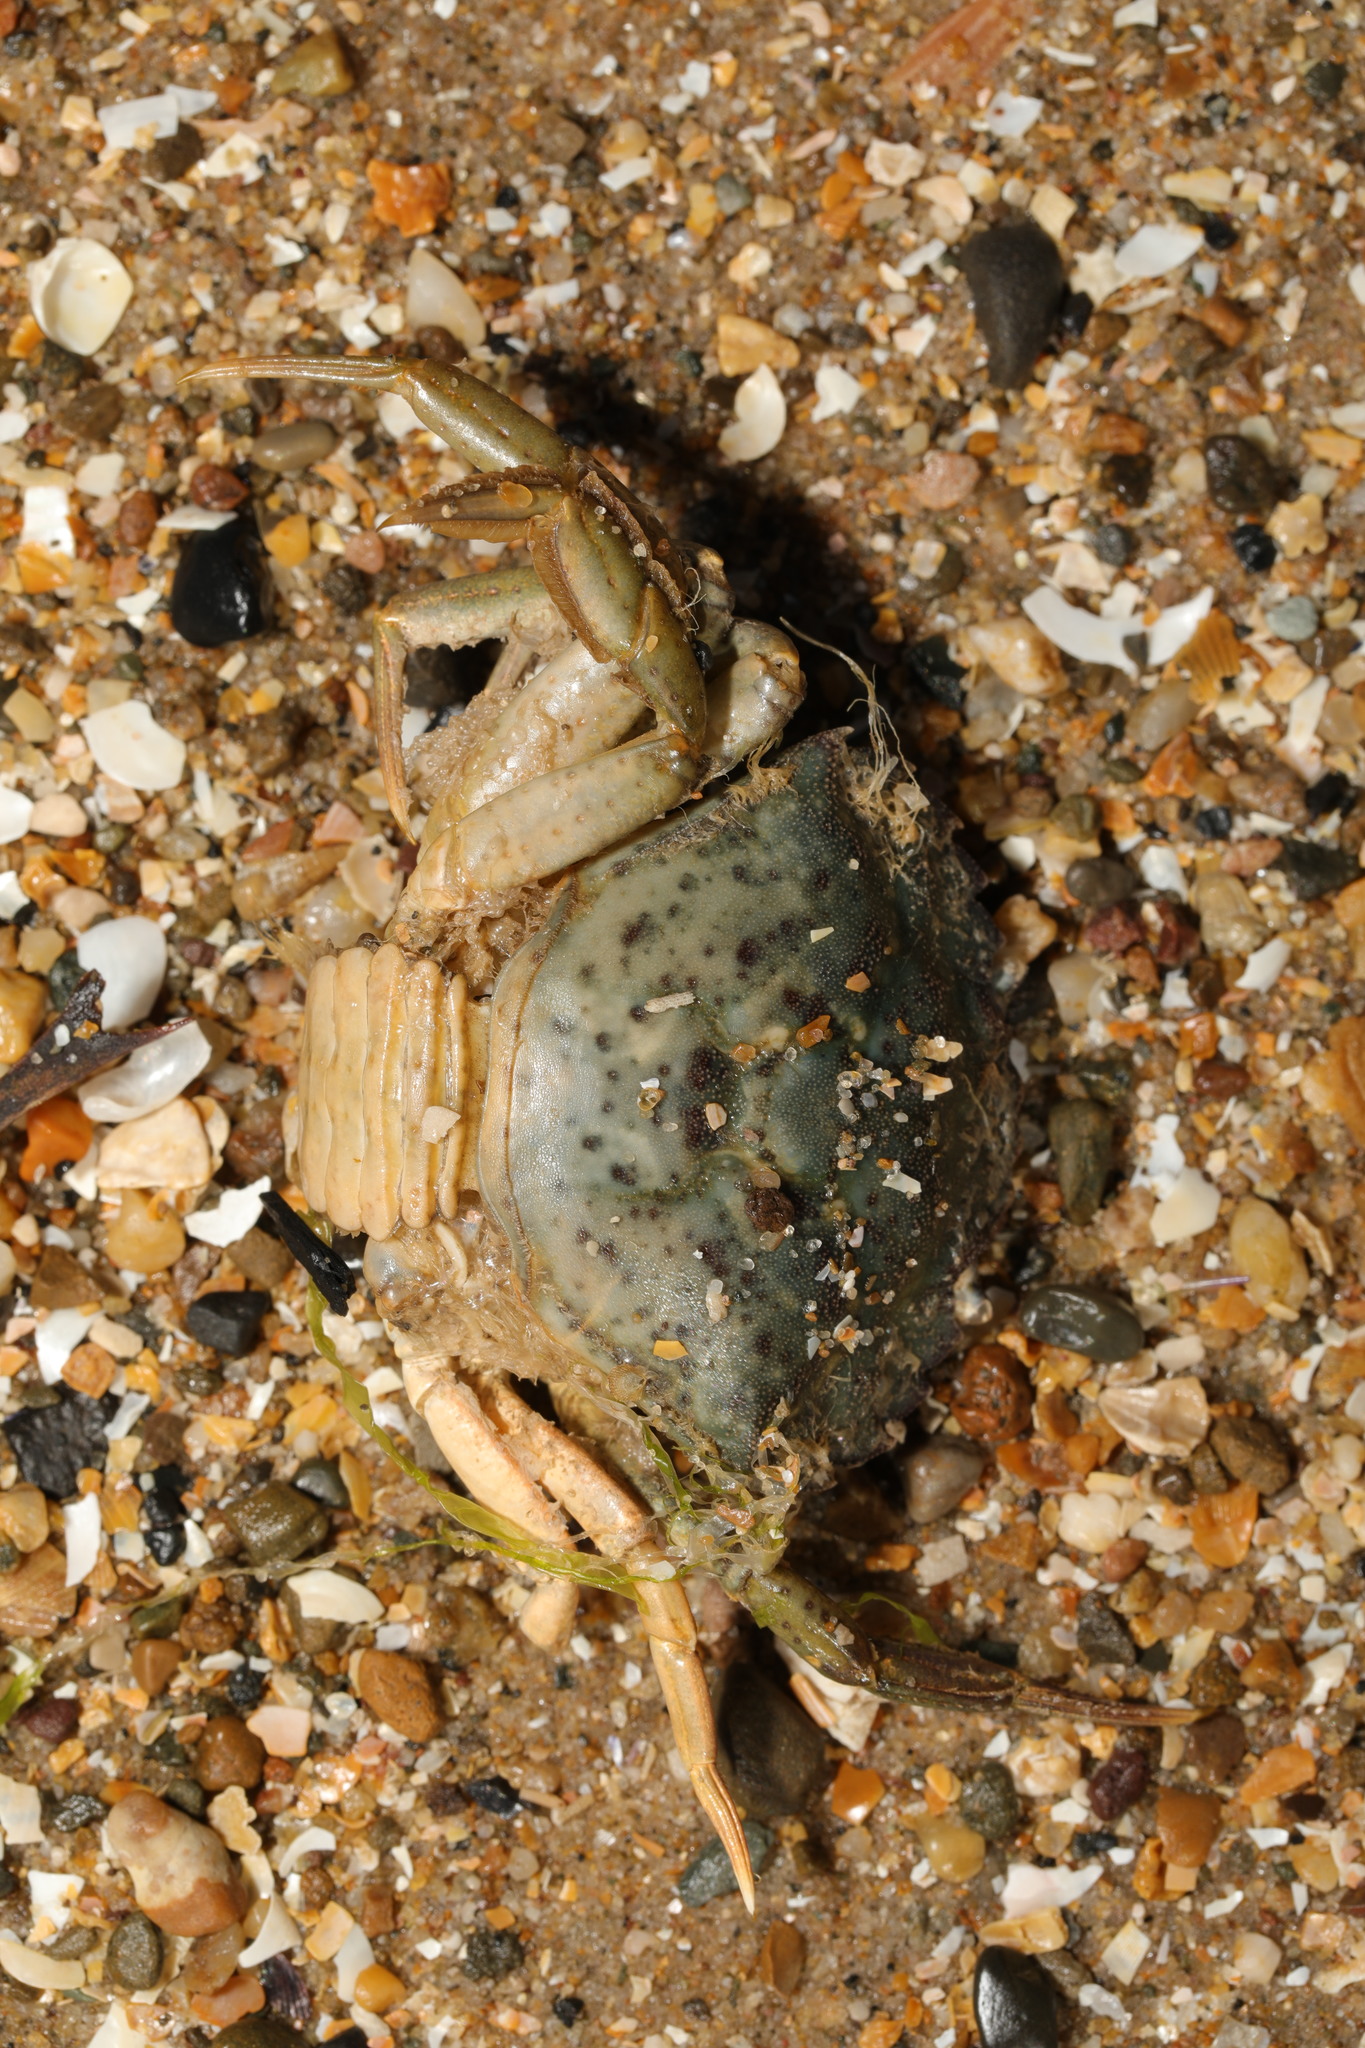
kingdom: Animalia
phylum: Arthropoda
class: Malacostraca
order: Decapoda
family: Carcinidae
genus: Carcinus
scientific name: Carcinus maenas
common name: European green crab
